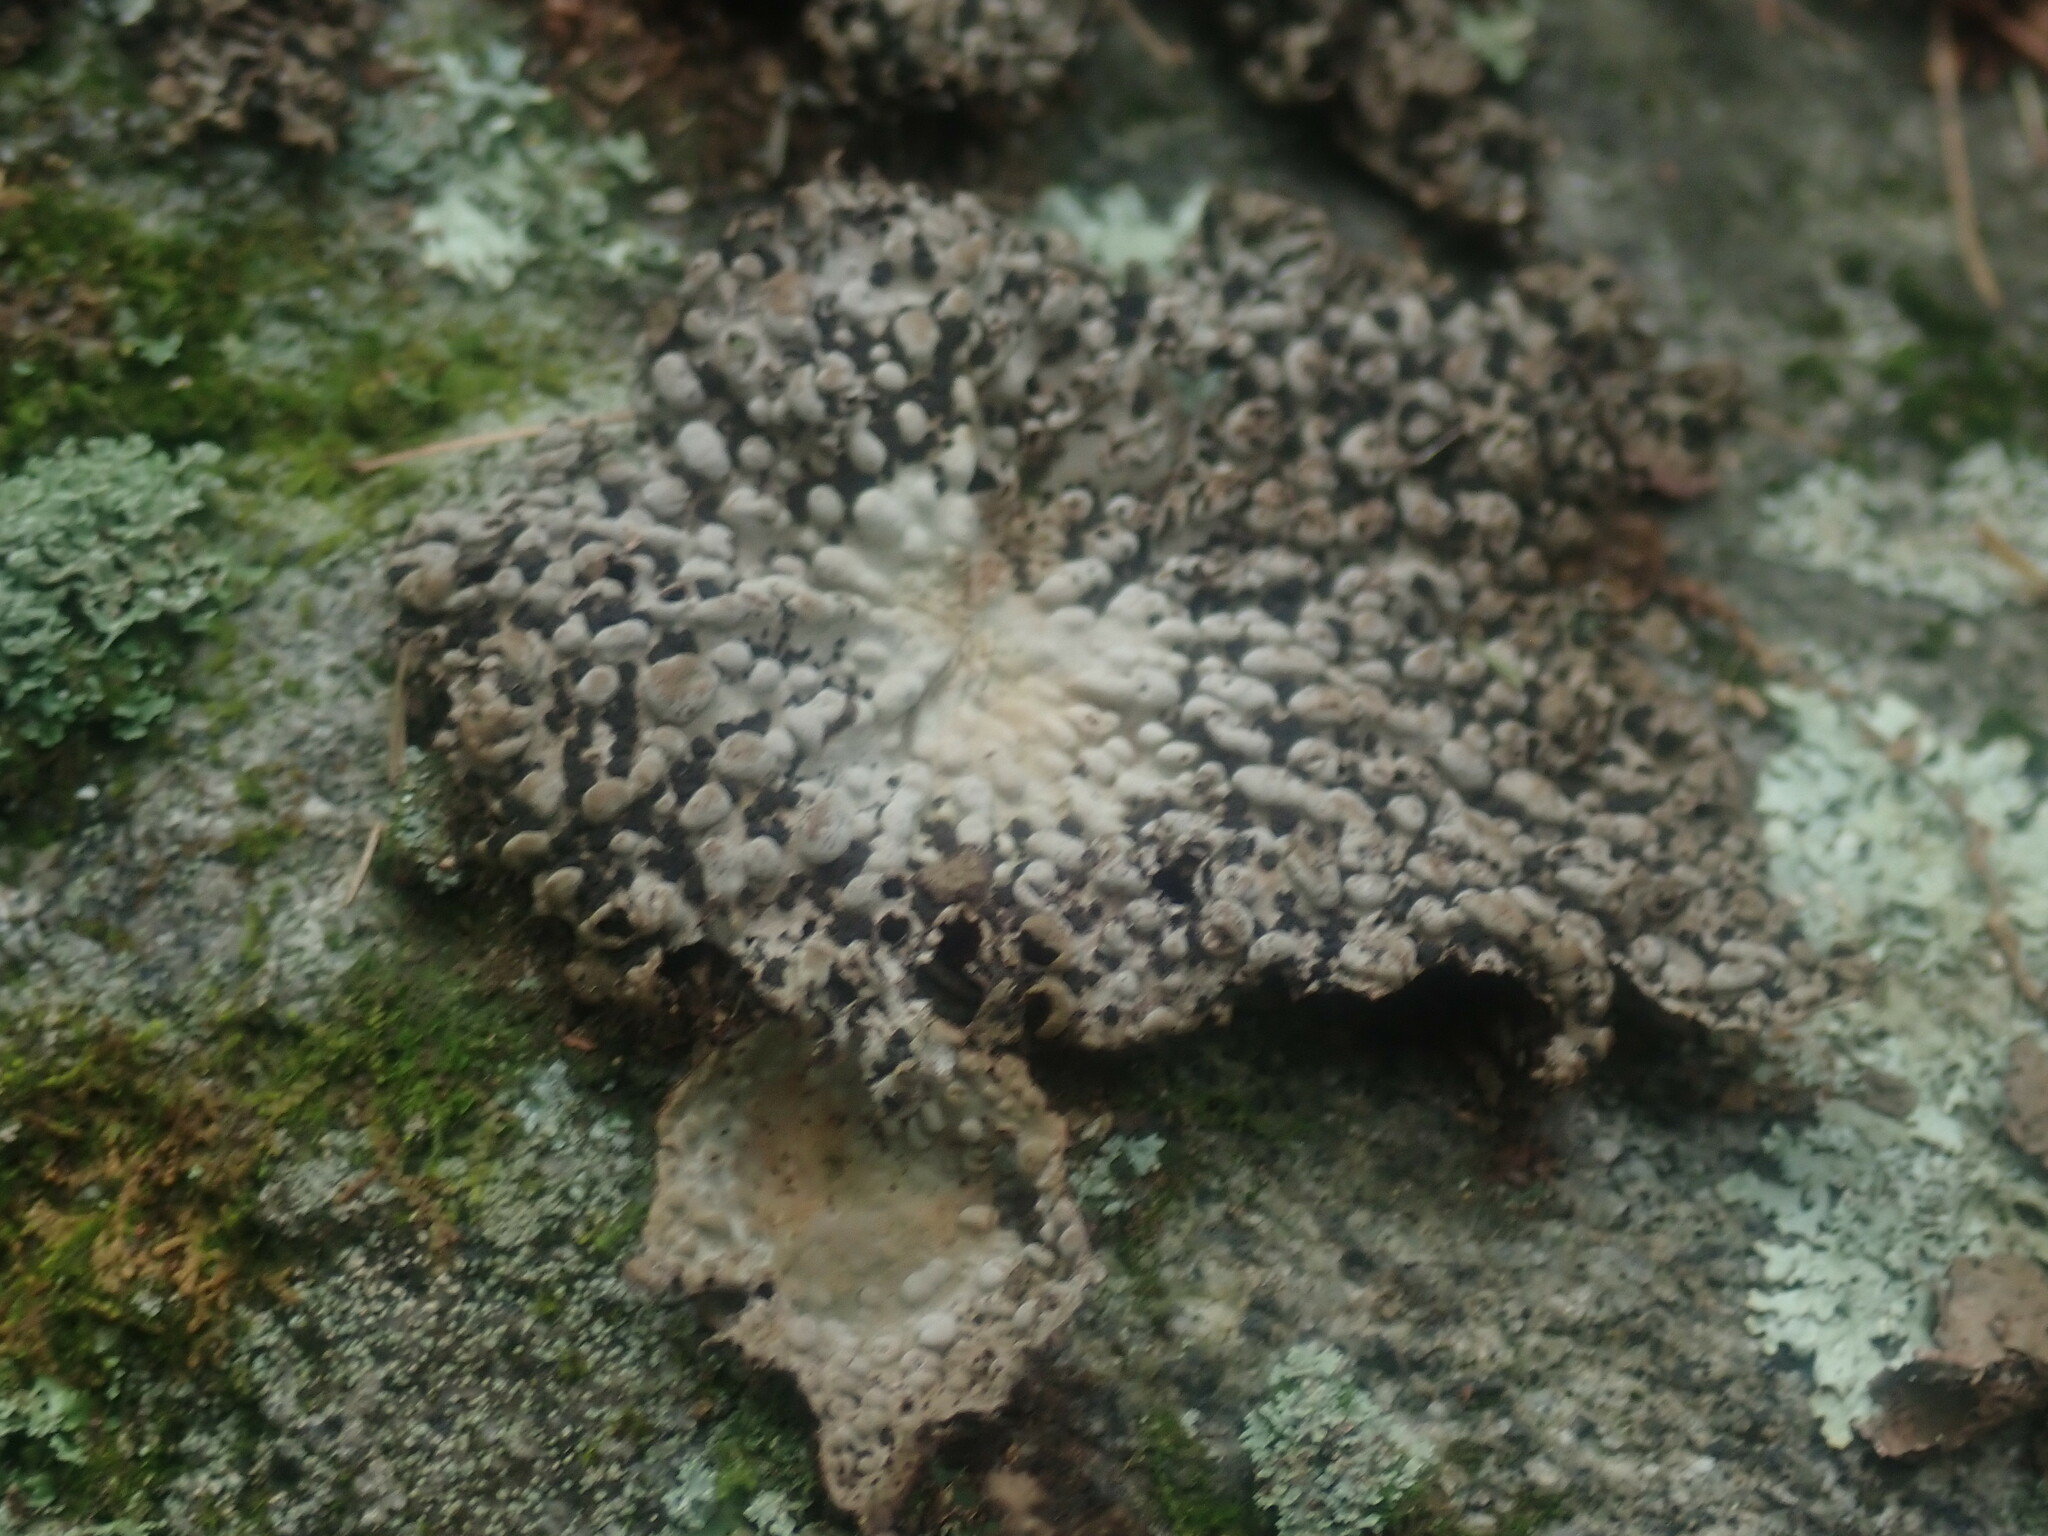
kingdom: Fungi
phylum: Ascomycota
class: Lecanoromycetes
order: Umbilicariales
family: Umbilicariaceae
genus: Lasallia
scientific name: Lasallia papulosa
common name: Common toadskin lichen
